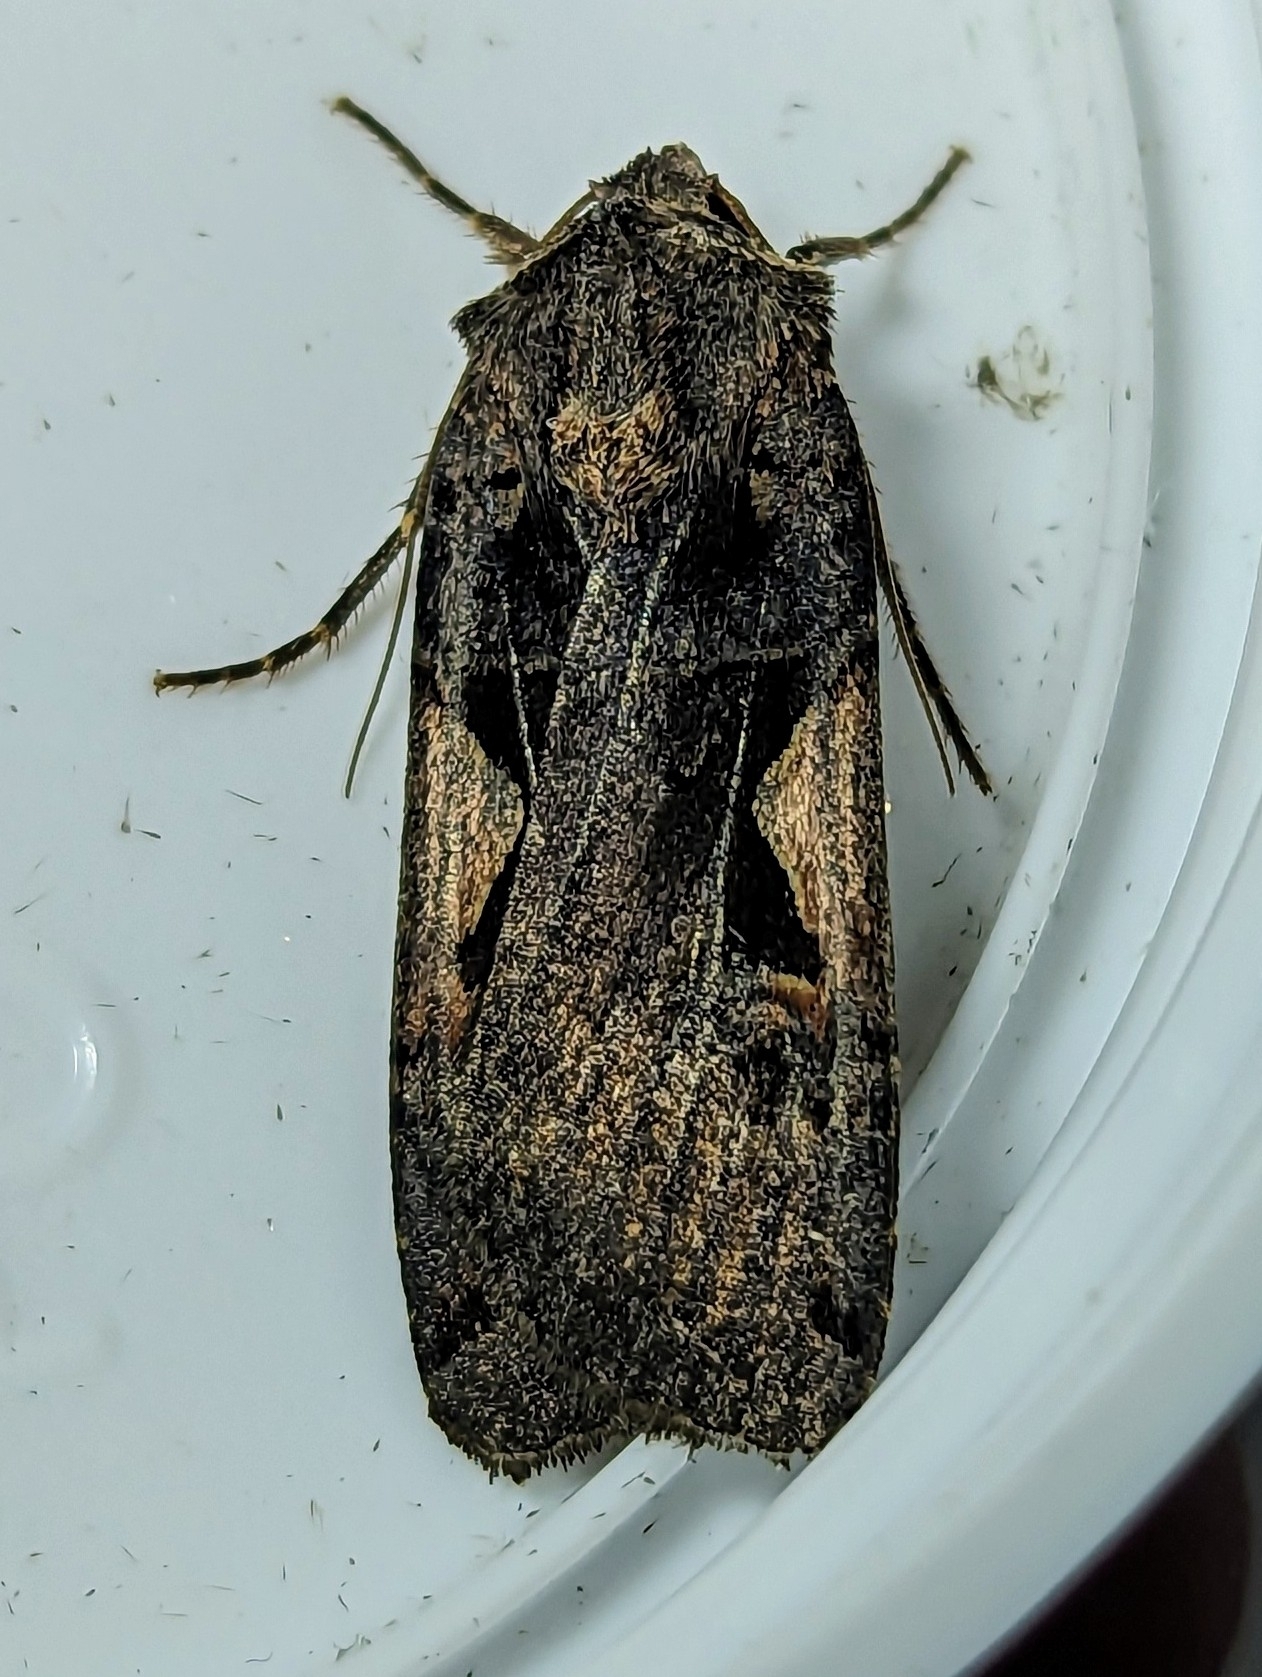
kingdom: Animalia
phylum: Arthropoda
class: Insecta
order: Lepidoptera
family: Noctuidae
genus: Xestia
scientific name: Xestia c-nigrum
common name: Setaceous hebrew character
